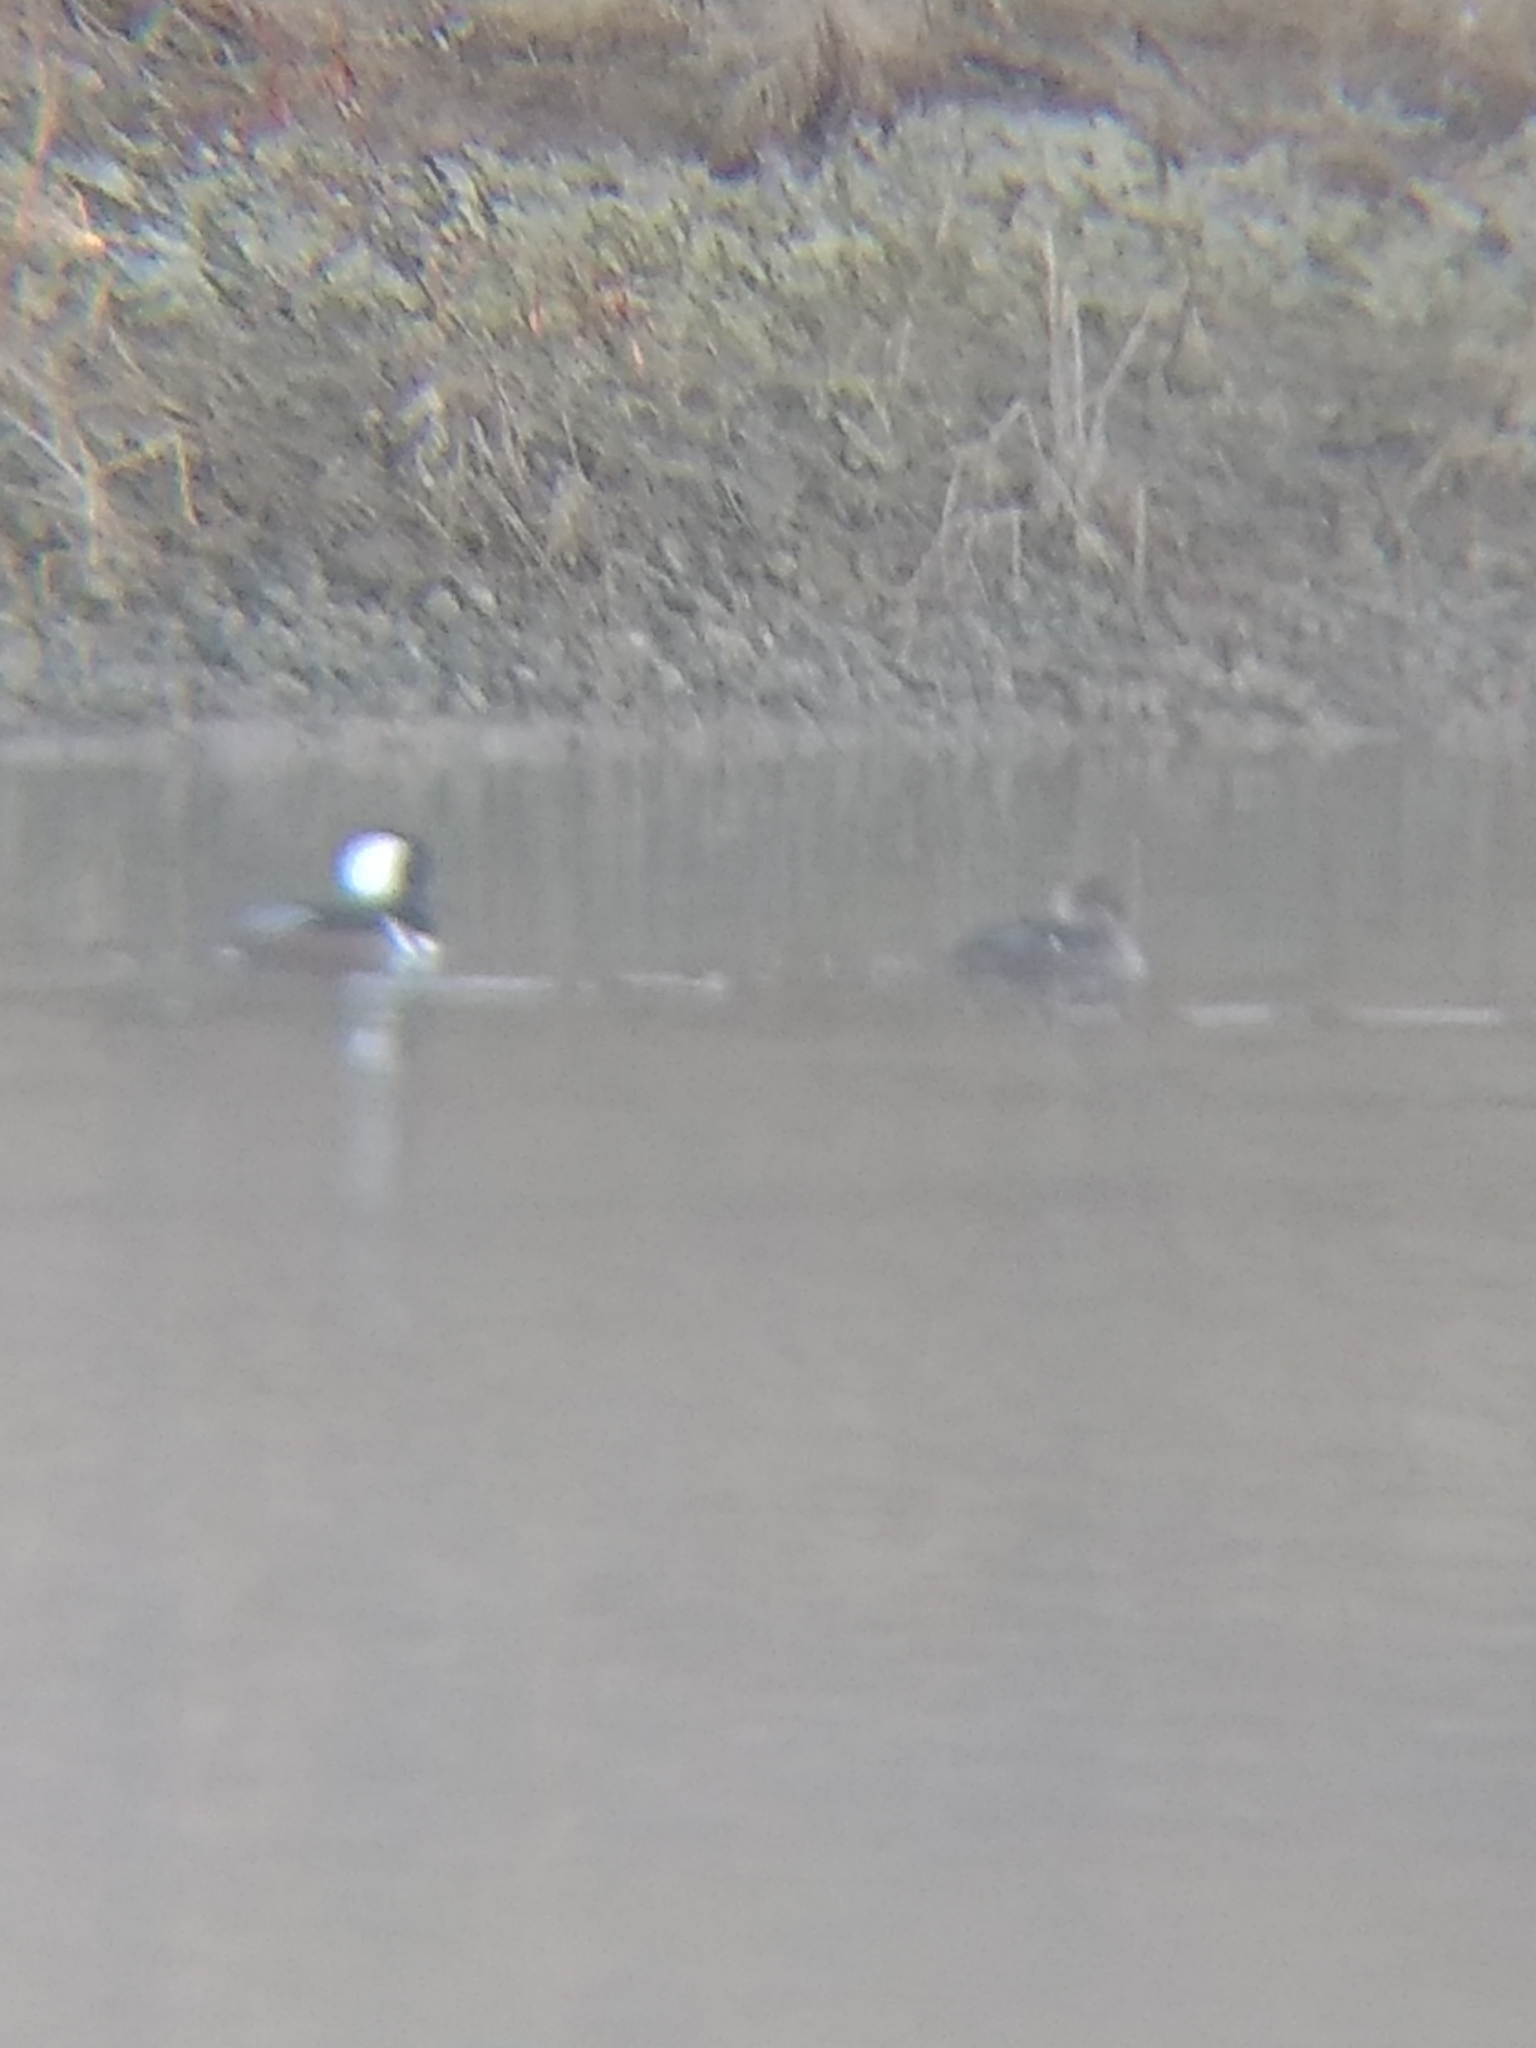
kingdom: Animalia
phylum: Chordata
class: Aves
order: Anseriformes
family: Anatidae
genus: Lophodytes
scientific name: Lophodytes cucullatus
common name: Hooded merganser
